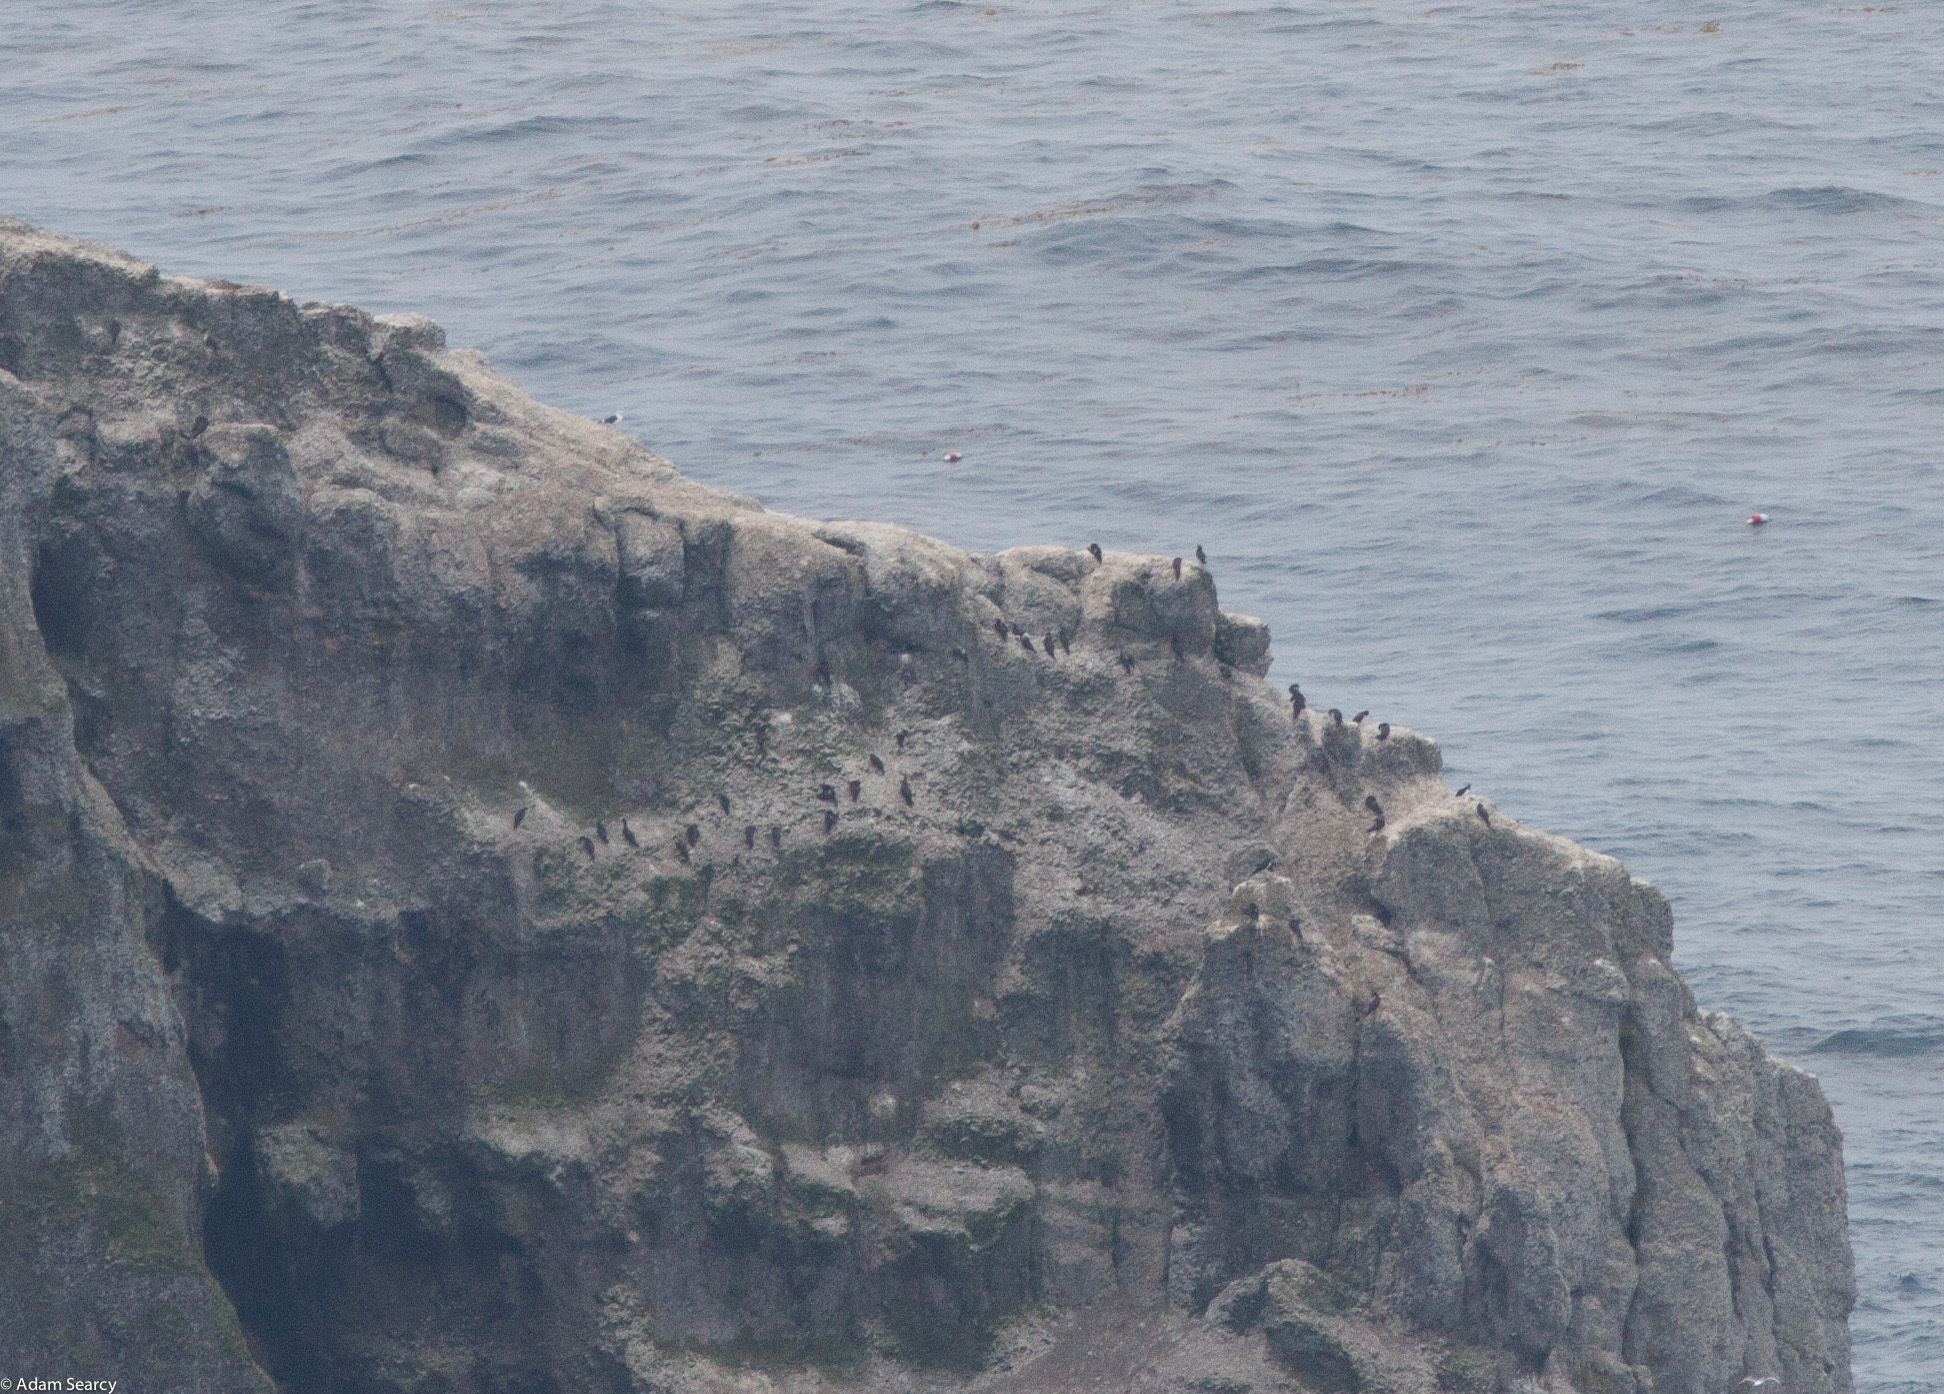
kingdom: Animalia
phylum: Chordata
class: Aves
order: Suliformes
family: Sulidae
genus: Sula
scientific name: Sula leucogaster
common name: Brown booby
